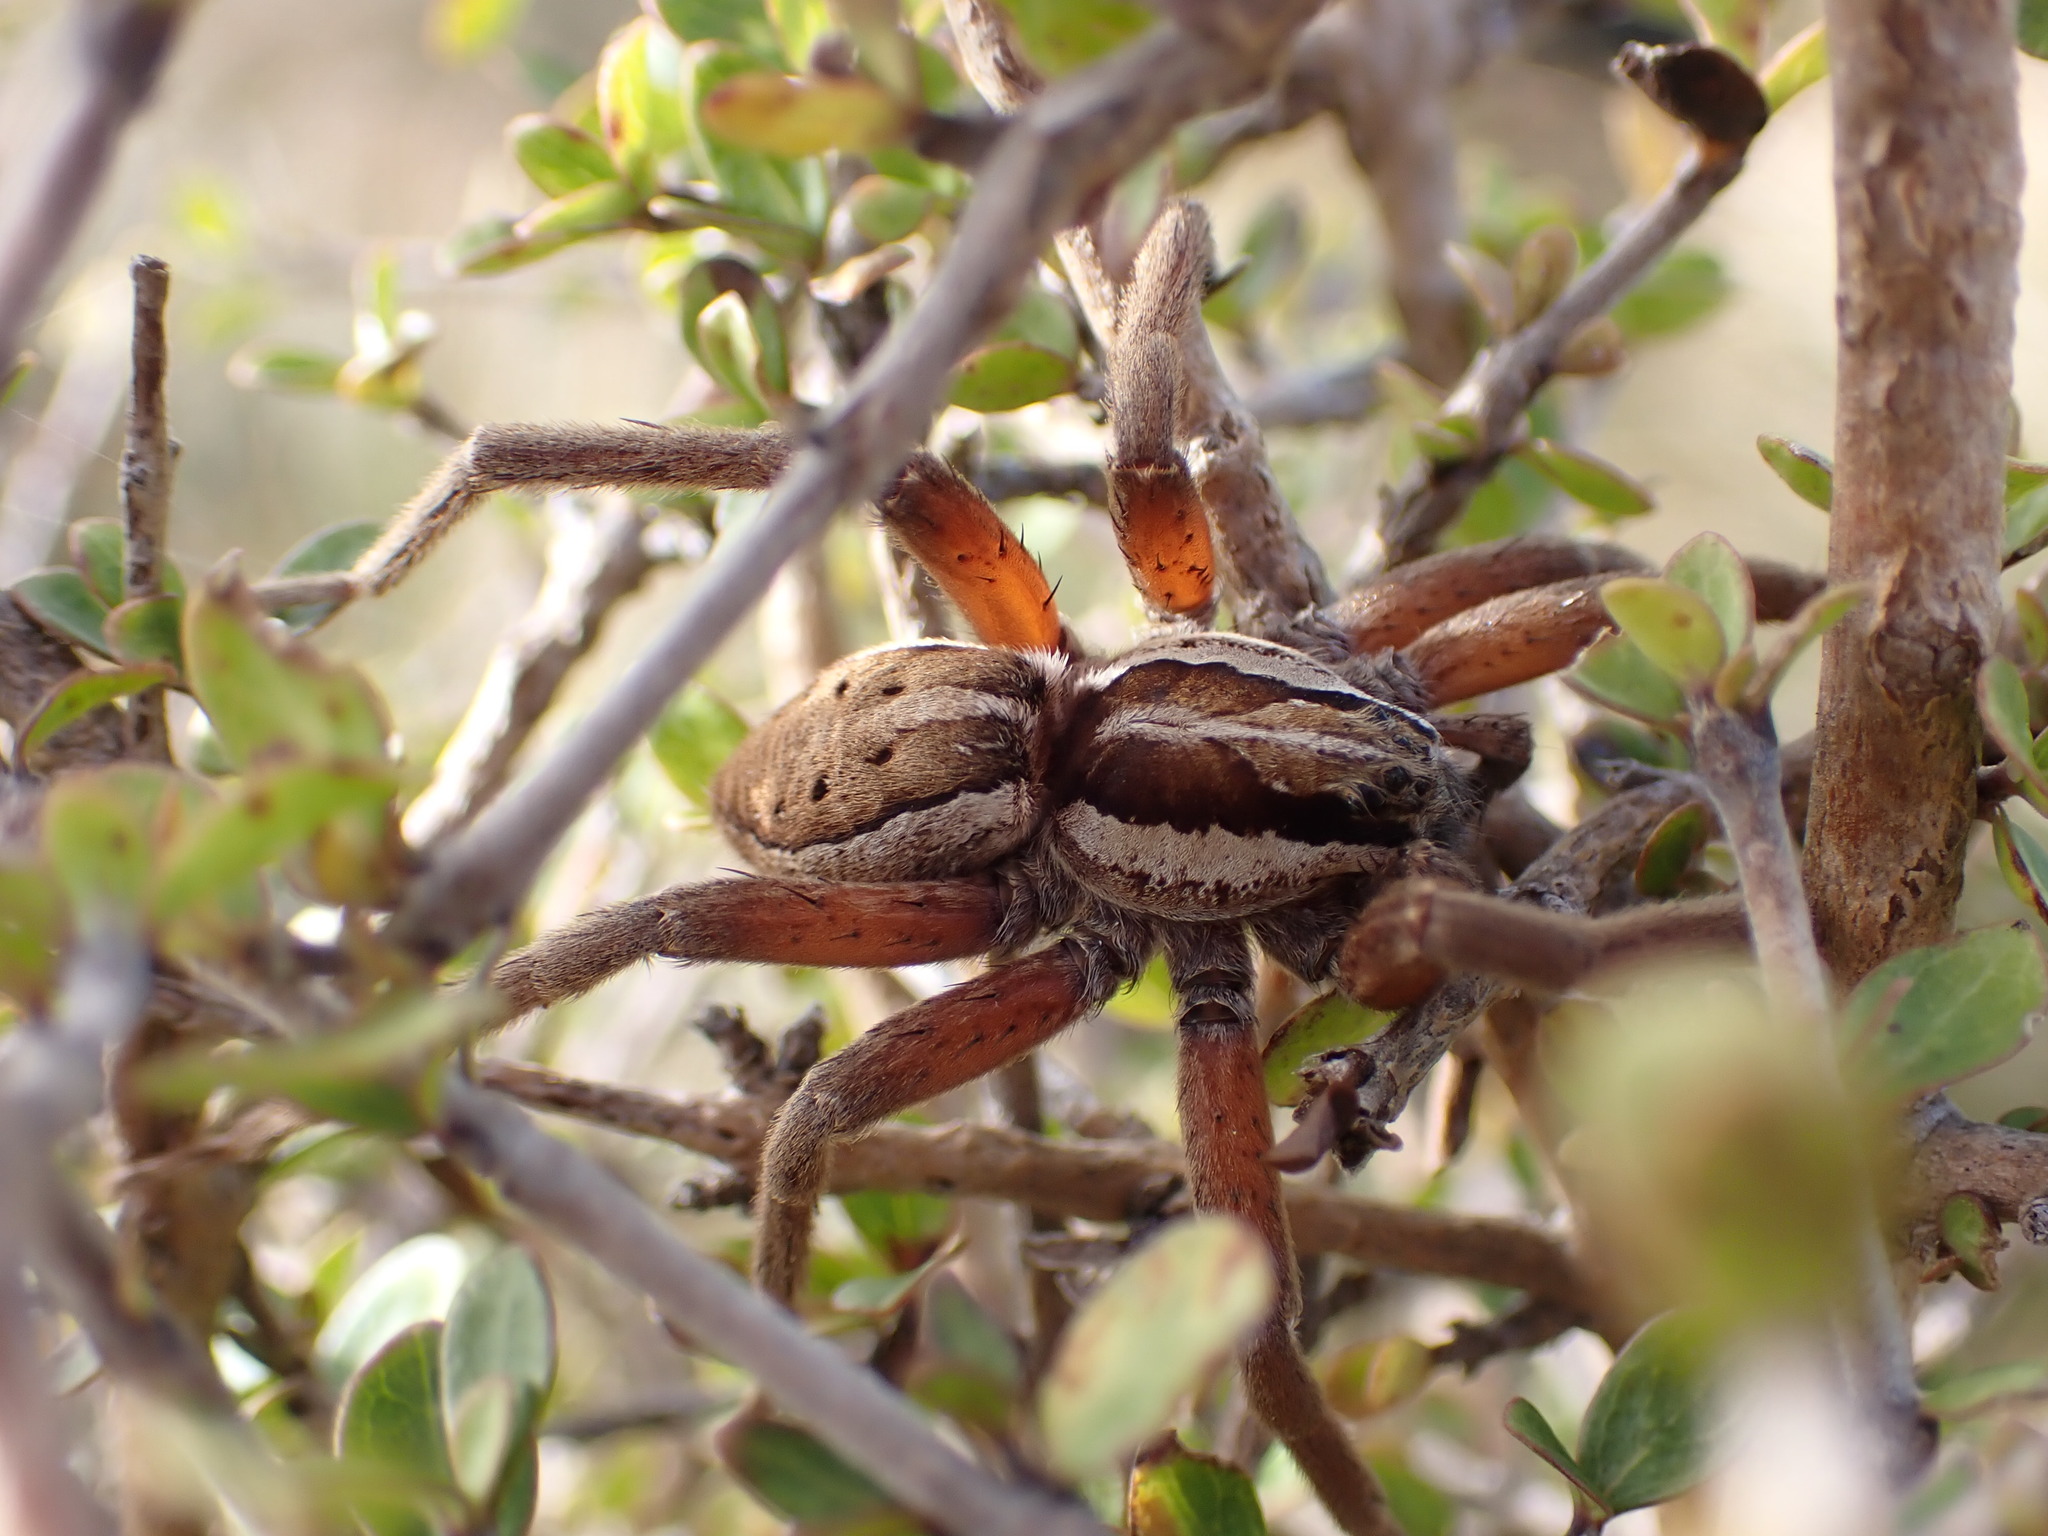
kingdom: Animalia
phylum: Arthropoda
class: Arachnida
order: Araneae
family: Pisauridae
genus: Dolomedes
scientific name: Dolomedes minor
